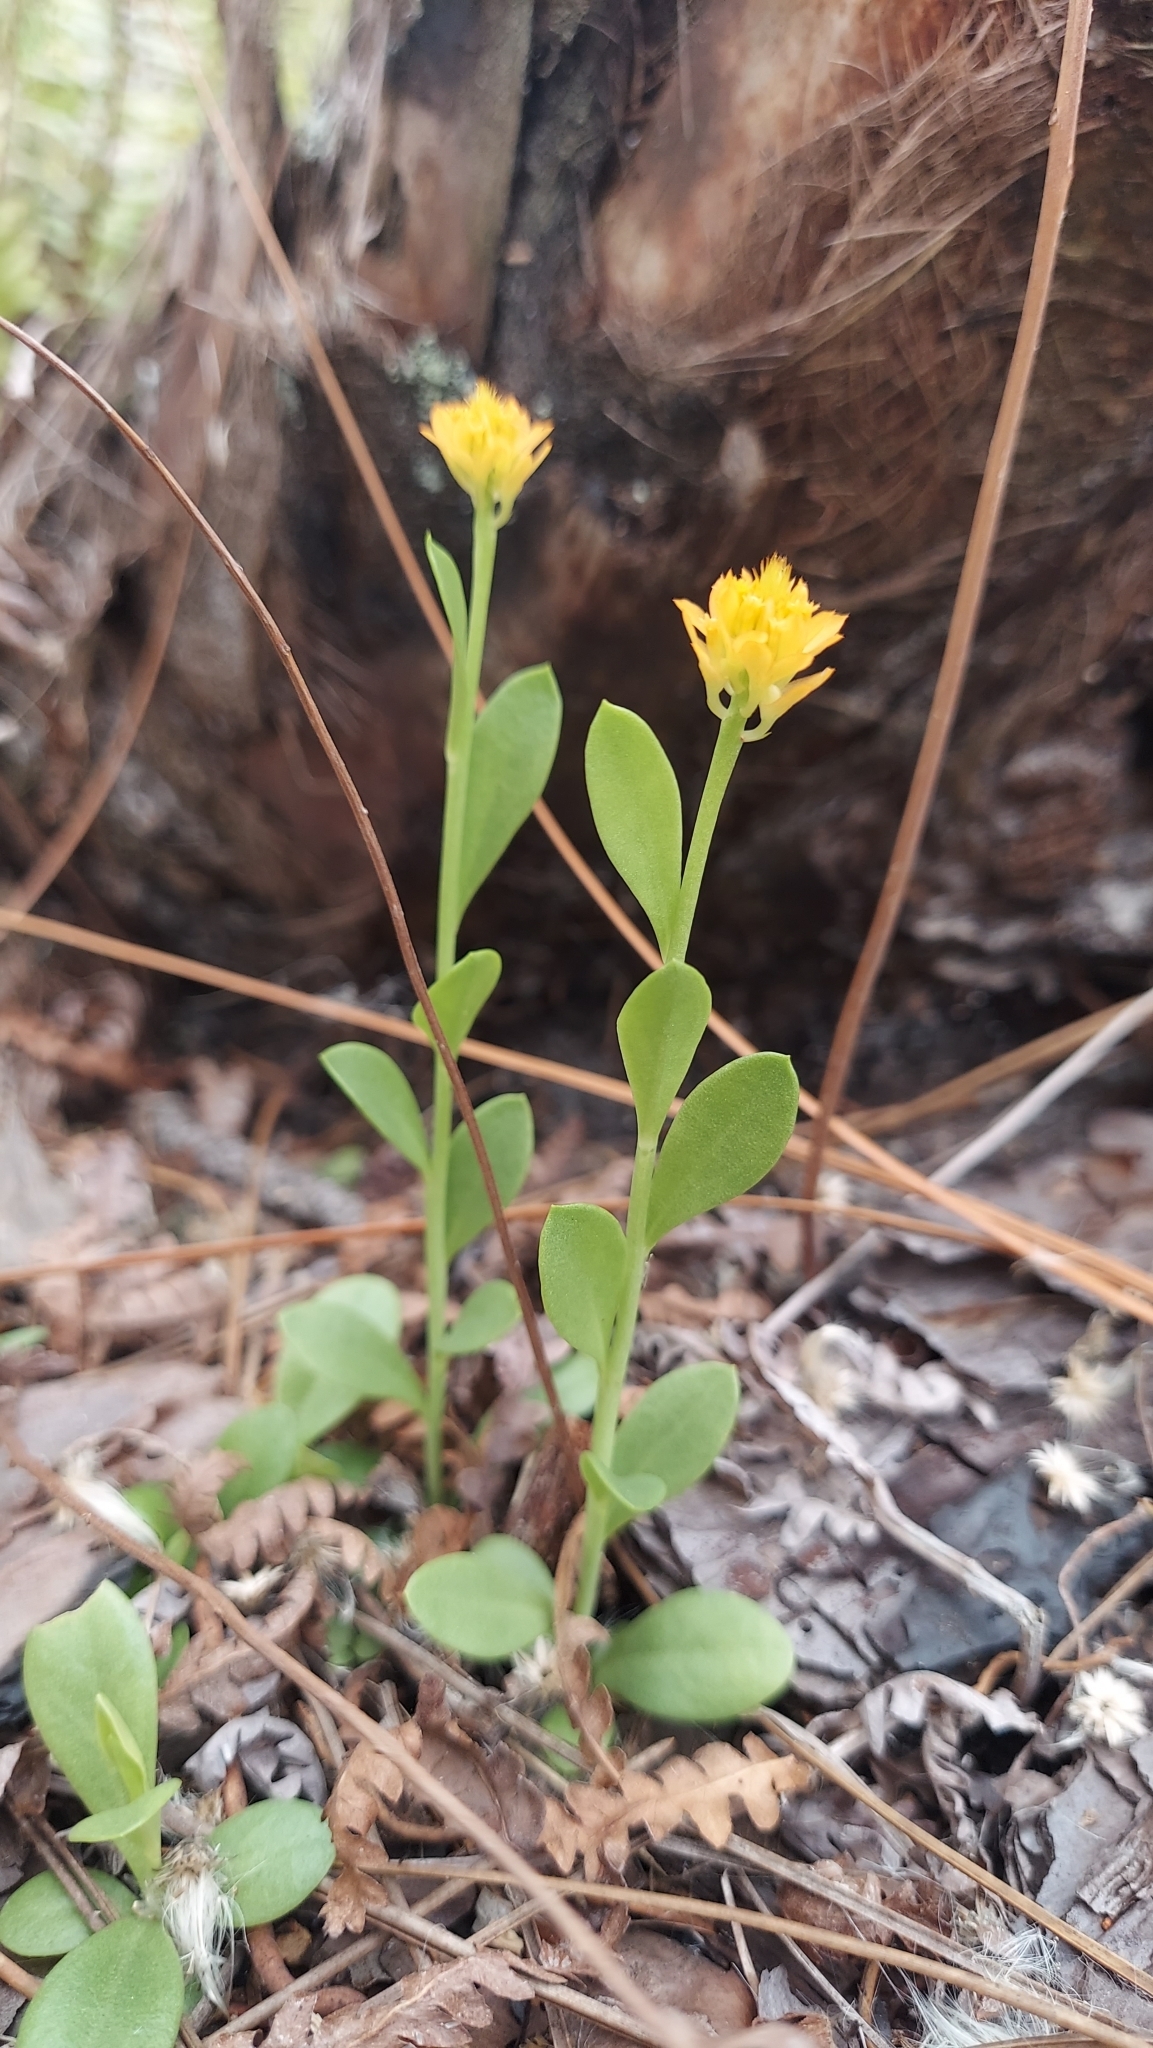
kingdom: Plantae
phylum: Tracheophyta
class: Magnoliopsida
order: Fabales
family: Polygalaceae
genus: Polygala
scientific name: Polygala lutea
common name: Orange milkwort
